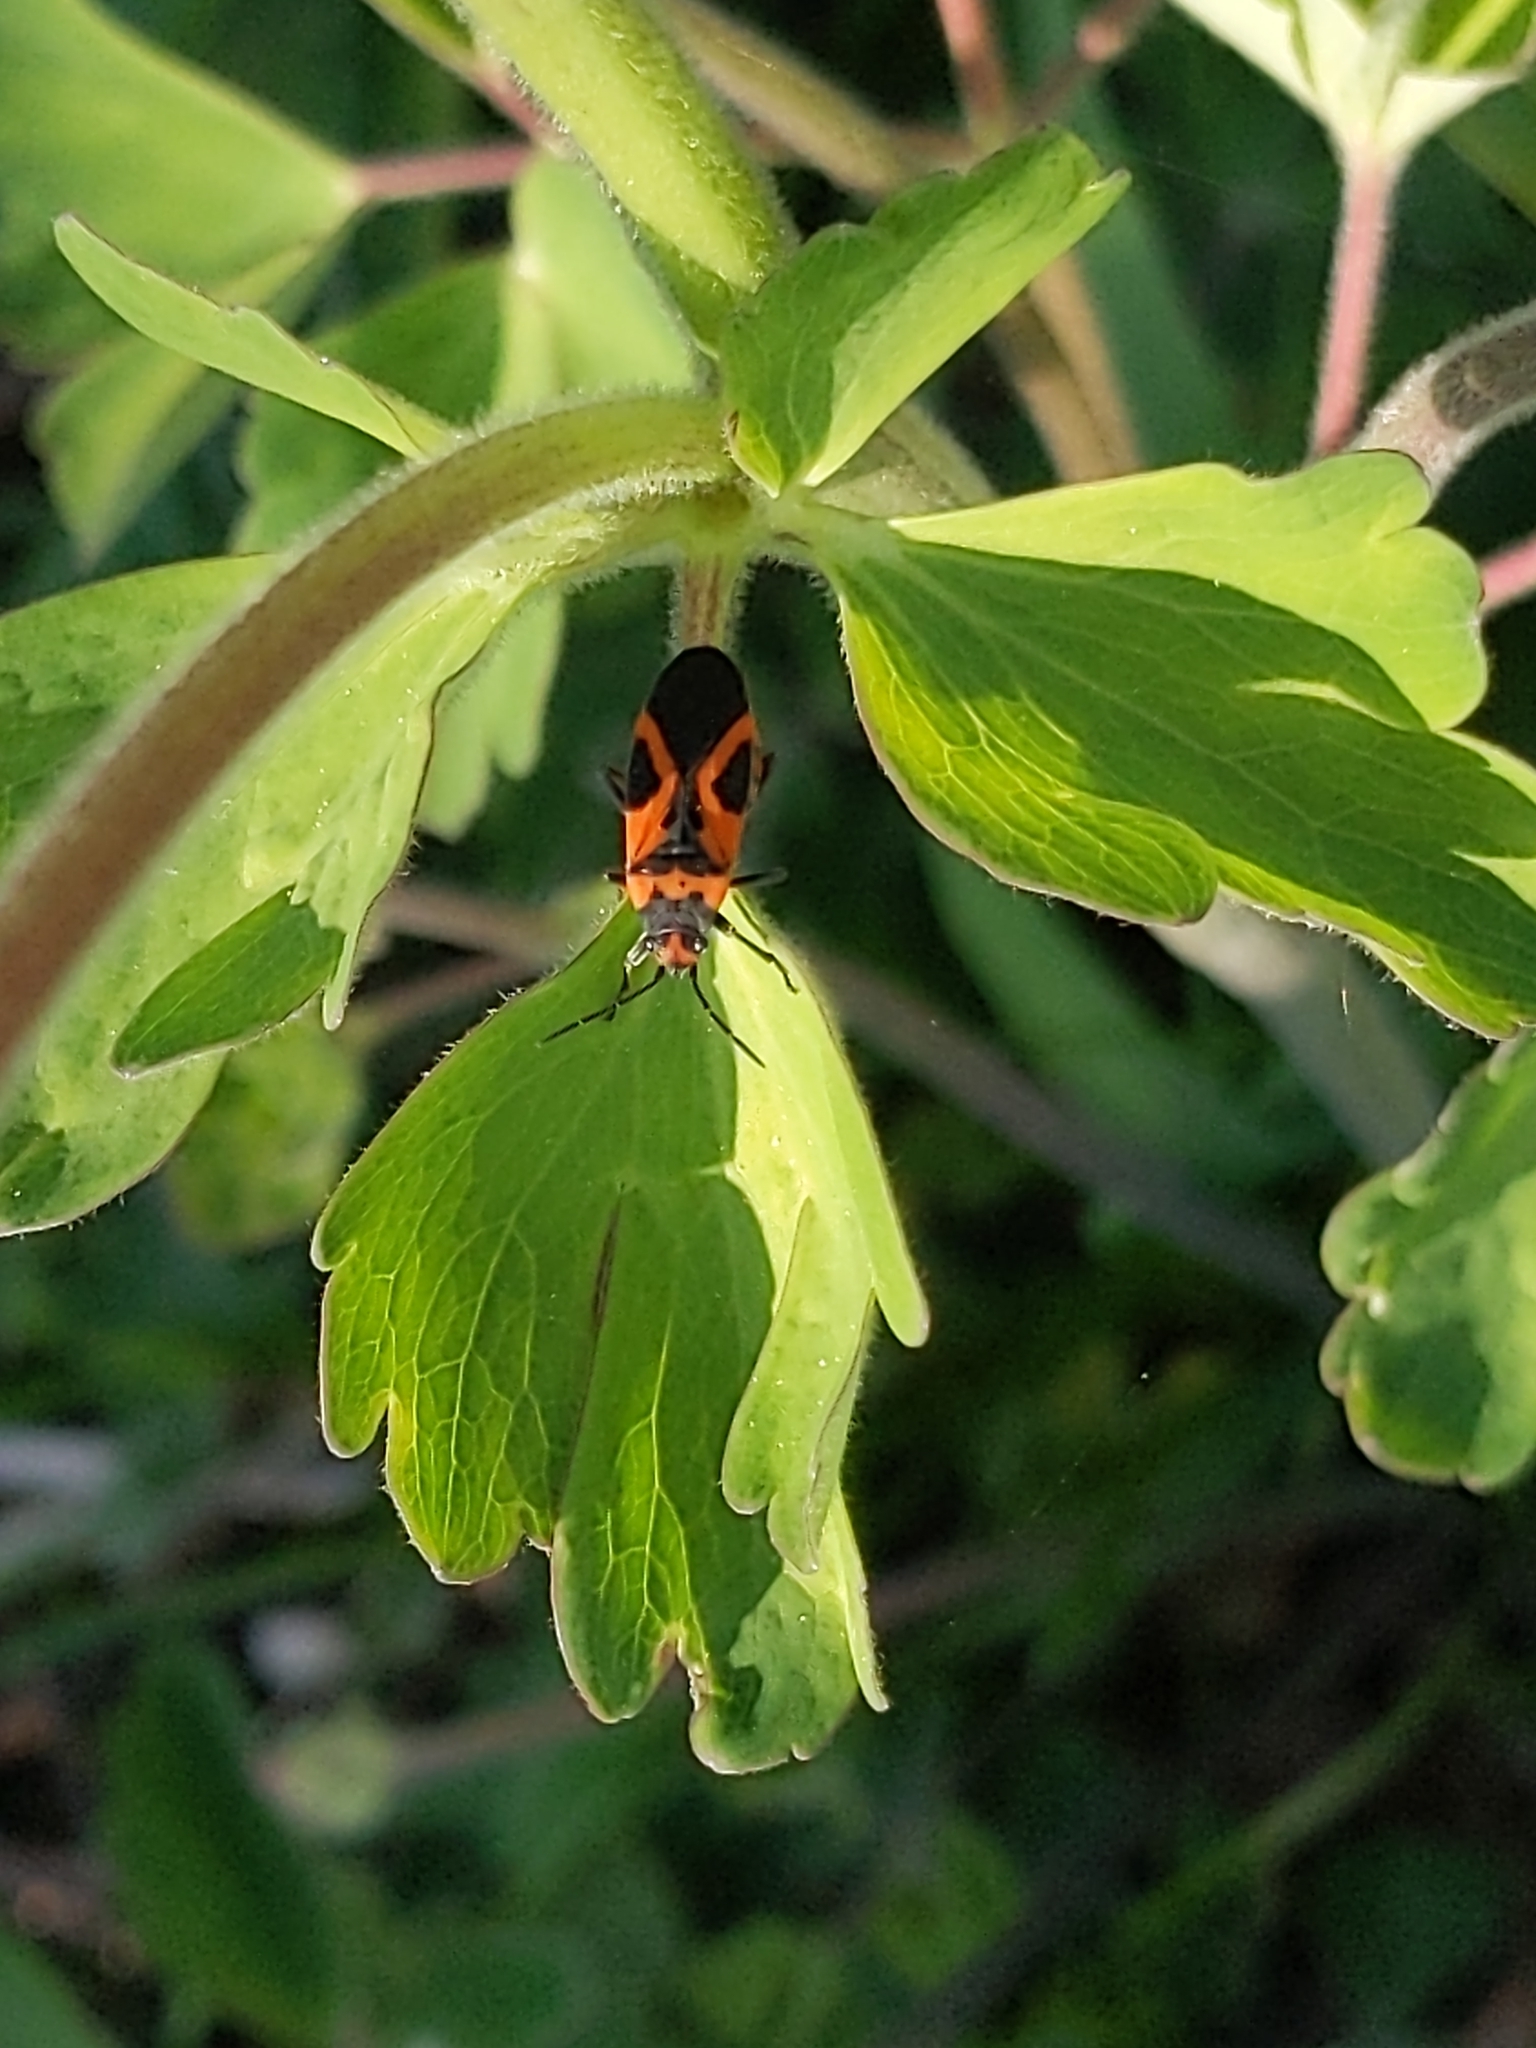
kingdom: Animalia
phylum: Arthropoda
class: Insecta
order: Hemiptera
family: Lygaeidae
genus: Lygaeus
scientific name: Lygaeus turcicus
